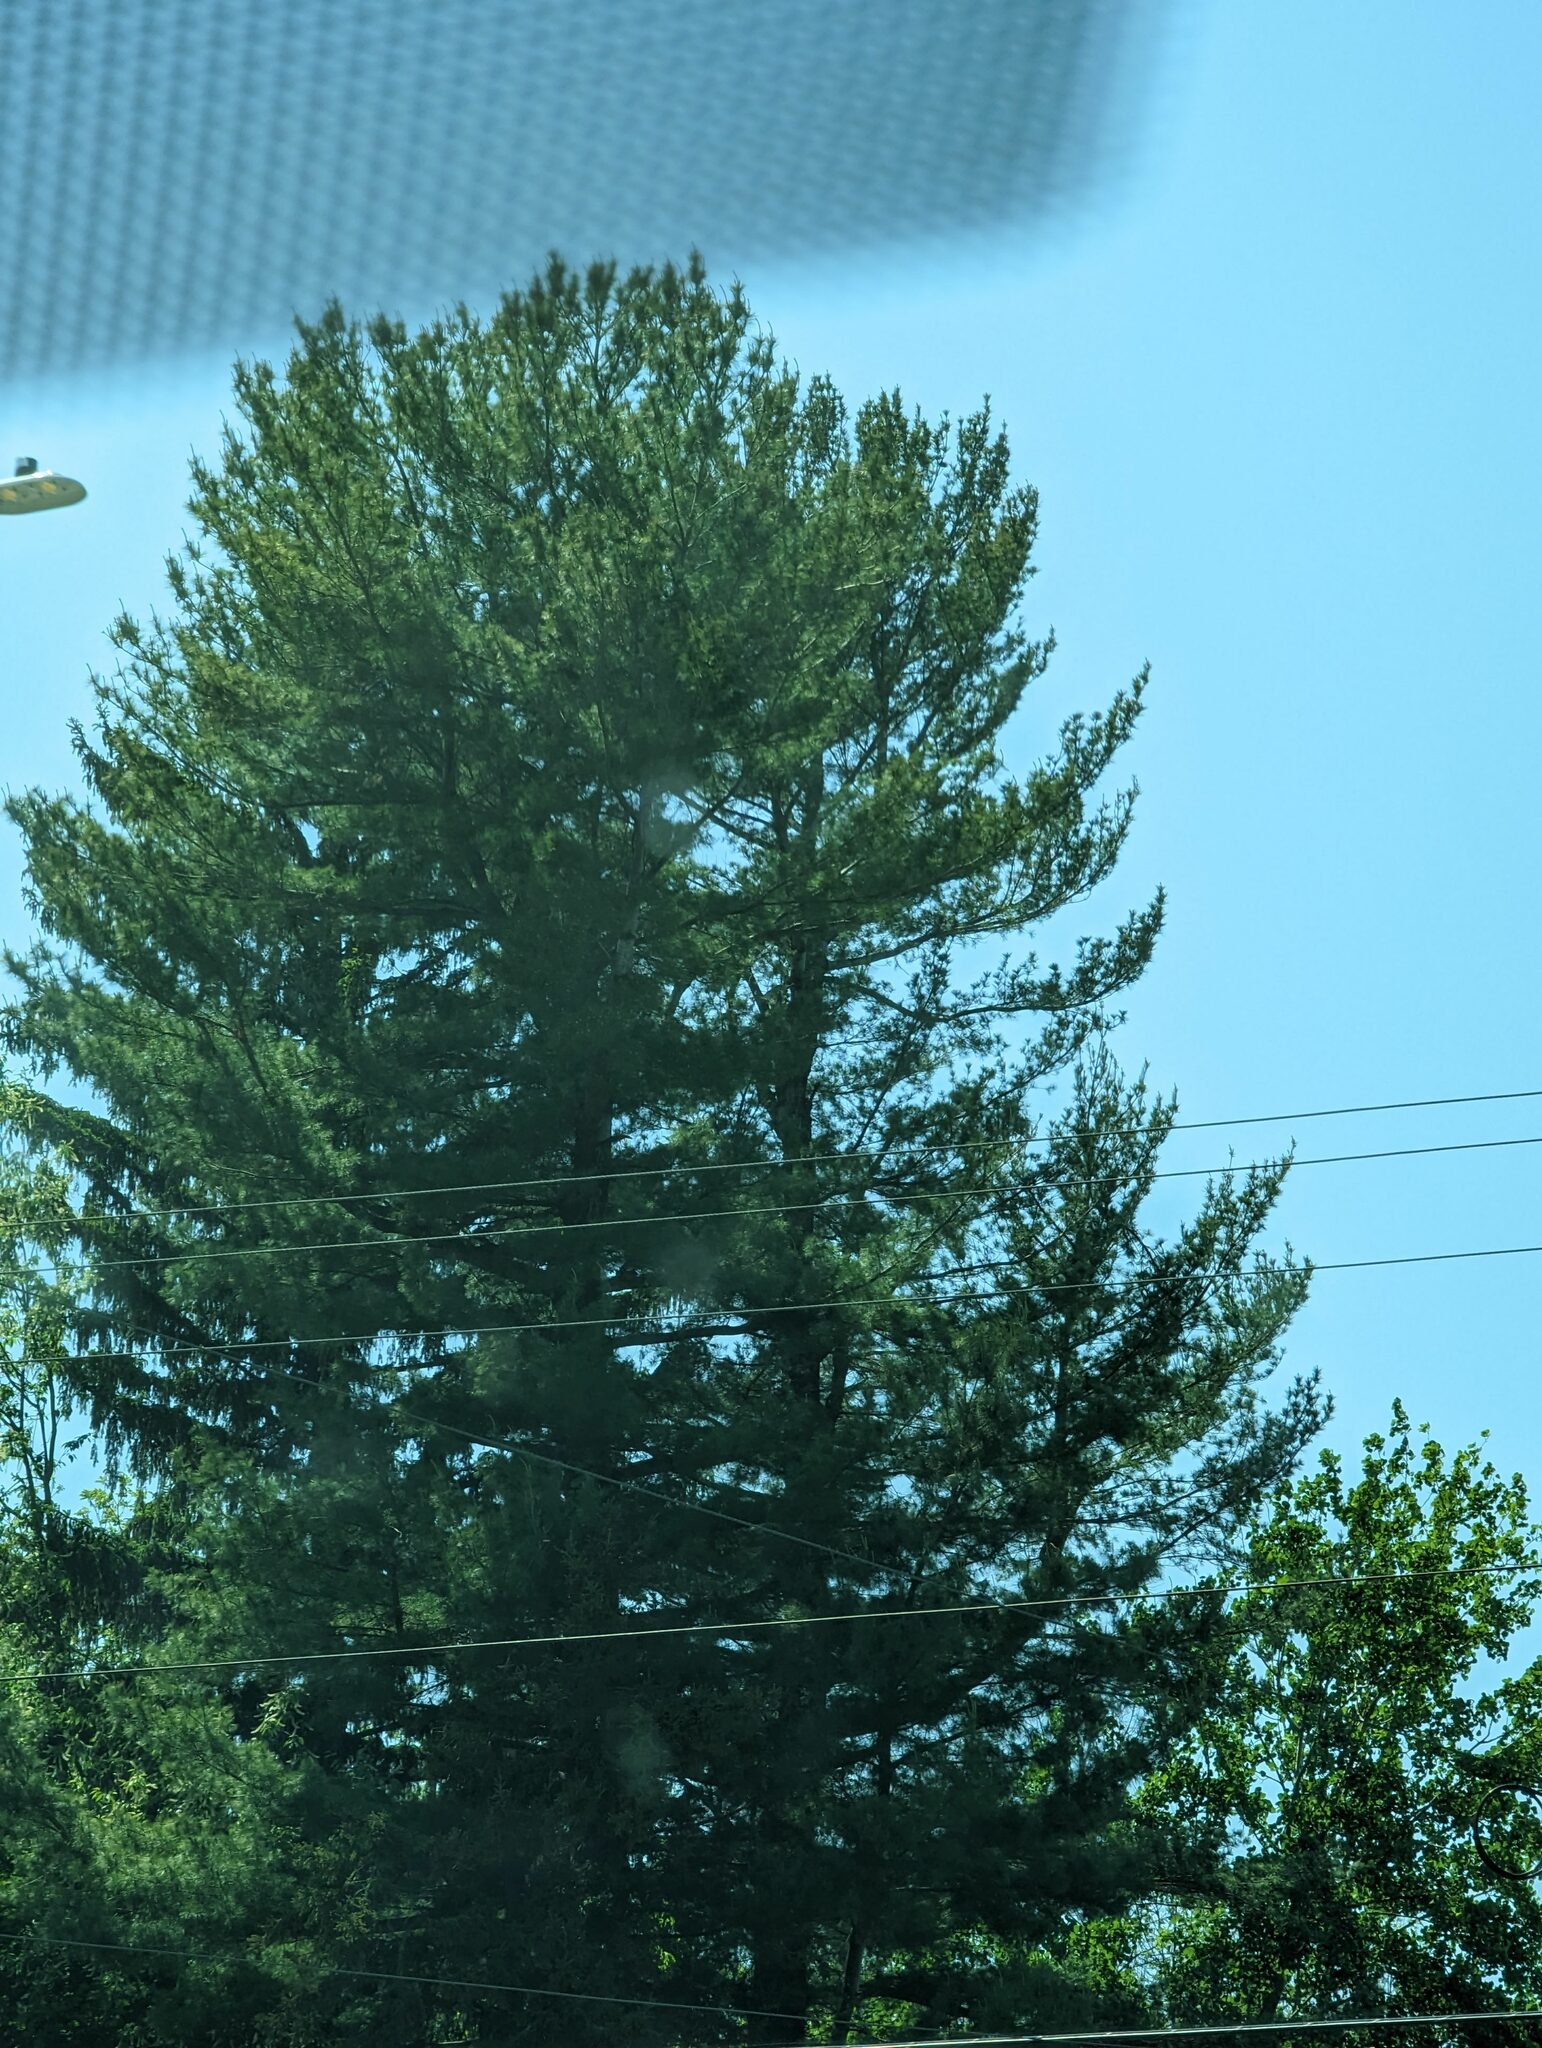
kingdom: Plantae
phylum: Tracheophyta
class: Pinopsida
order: Pinales
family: Pinaceae
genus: Pinus
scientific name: Pinus strobus
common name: Weymouth pine
